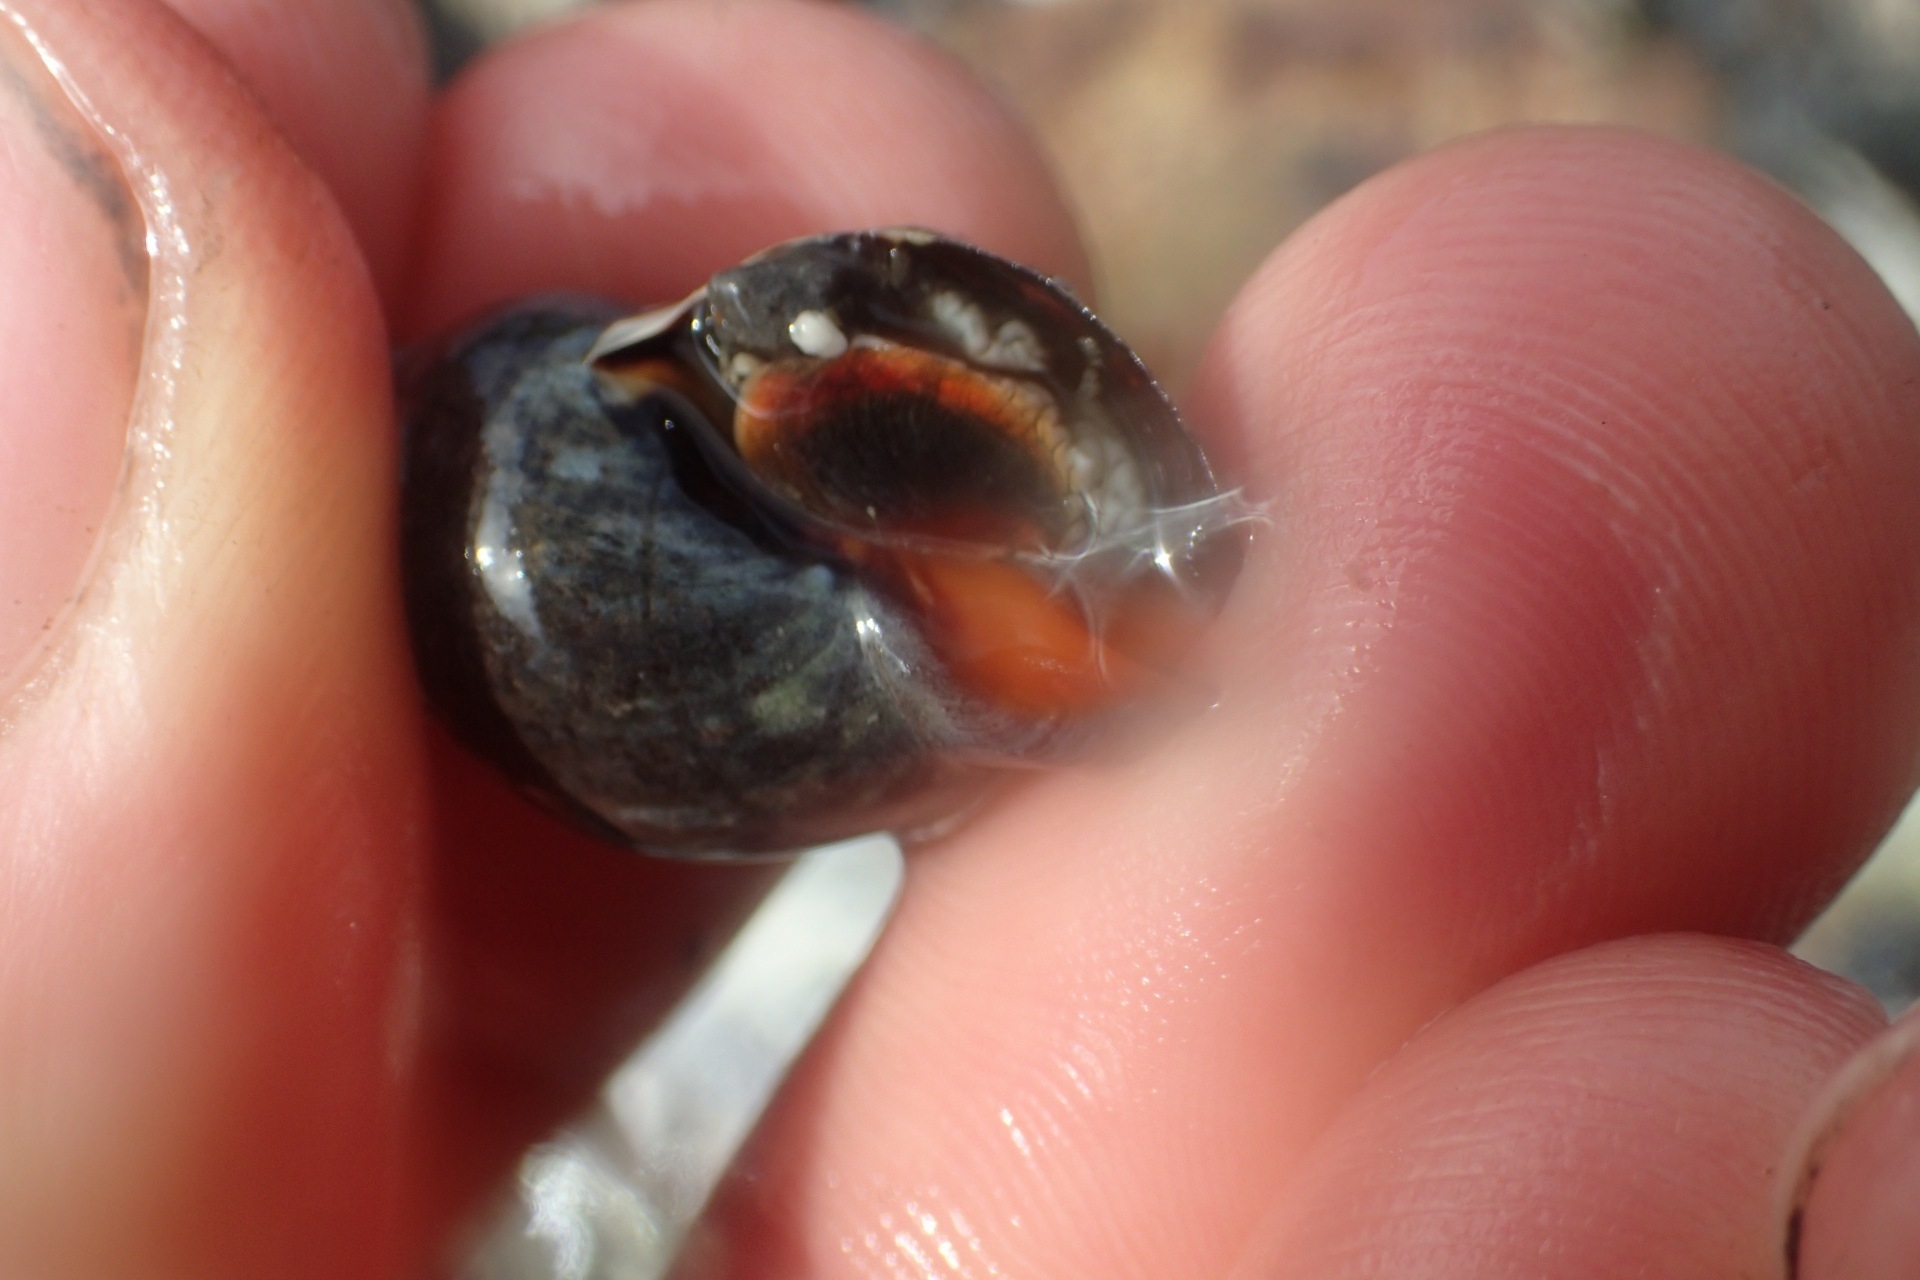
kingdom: Animalia
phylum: Mollusca
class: Gastropoda
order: Neogastropoda
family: Cominellidae
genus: Cominella
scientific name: Cominella virgata
